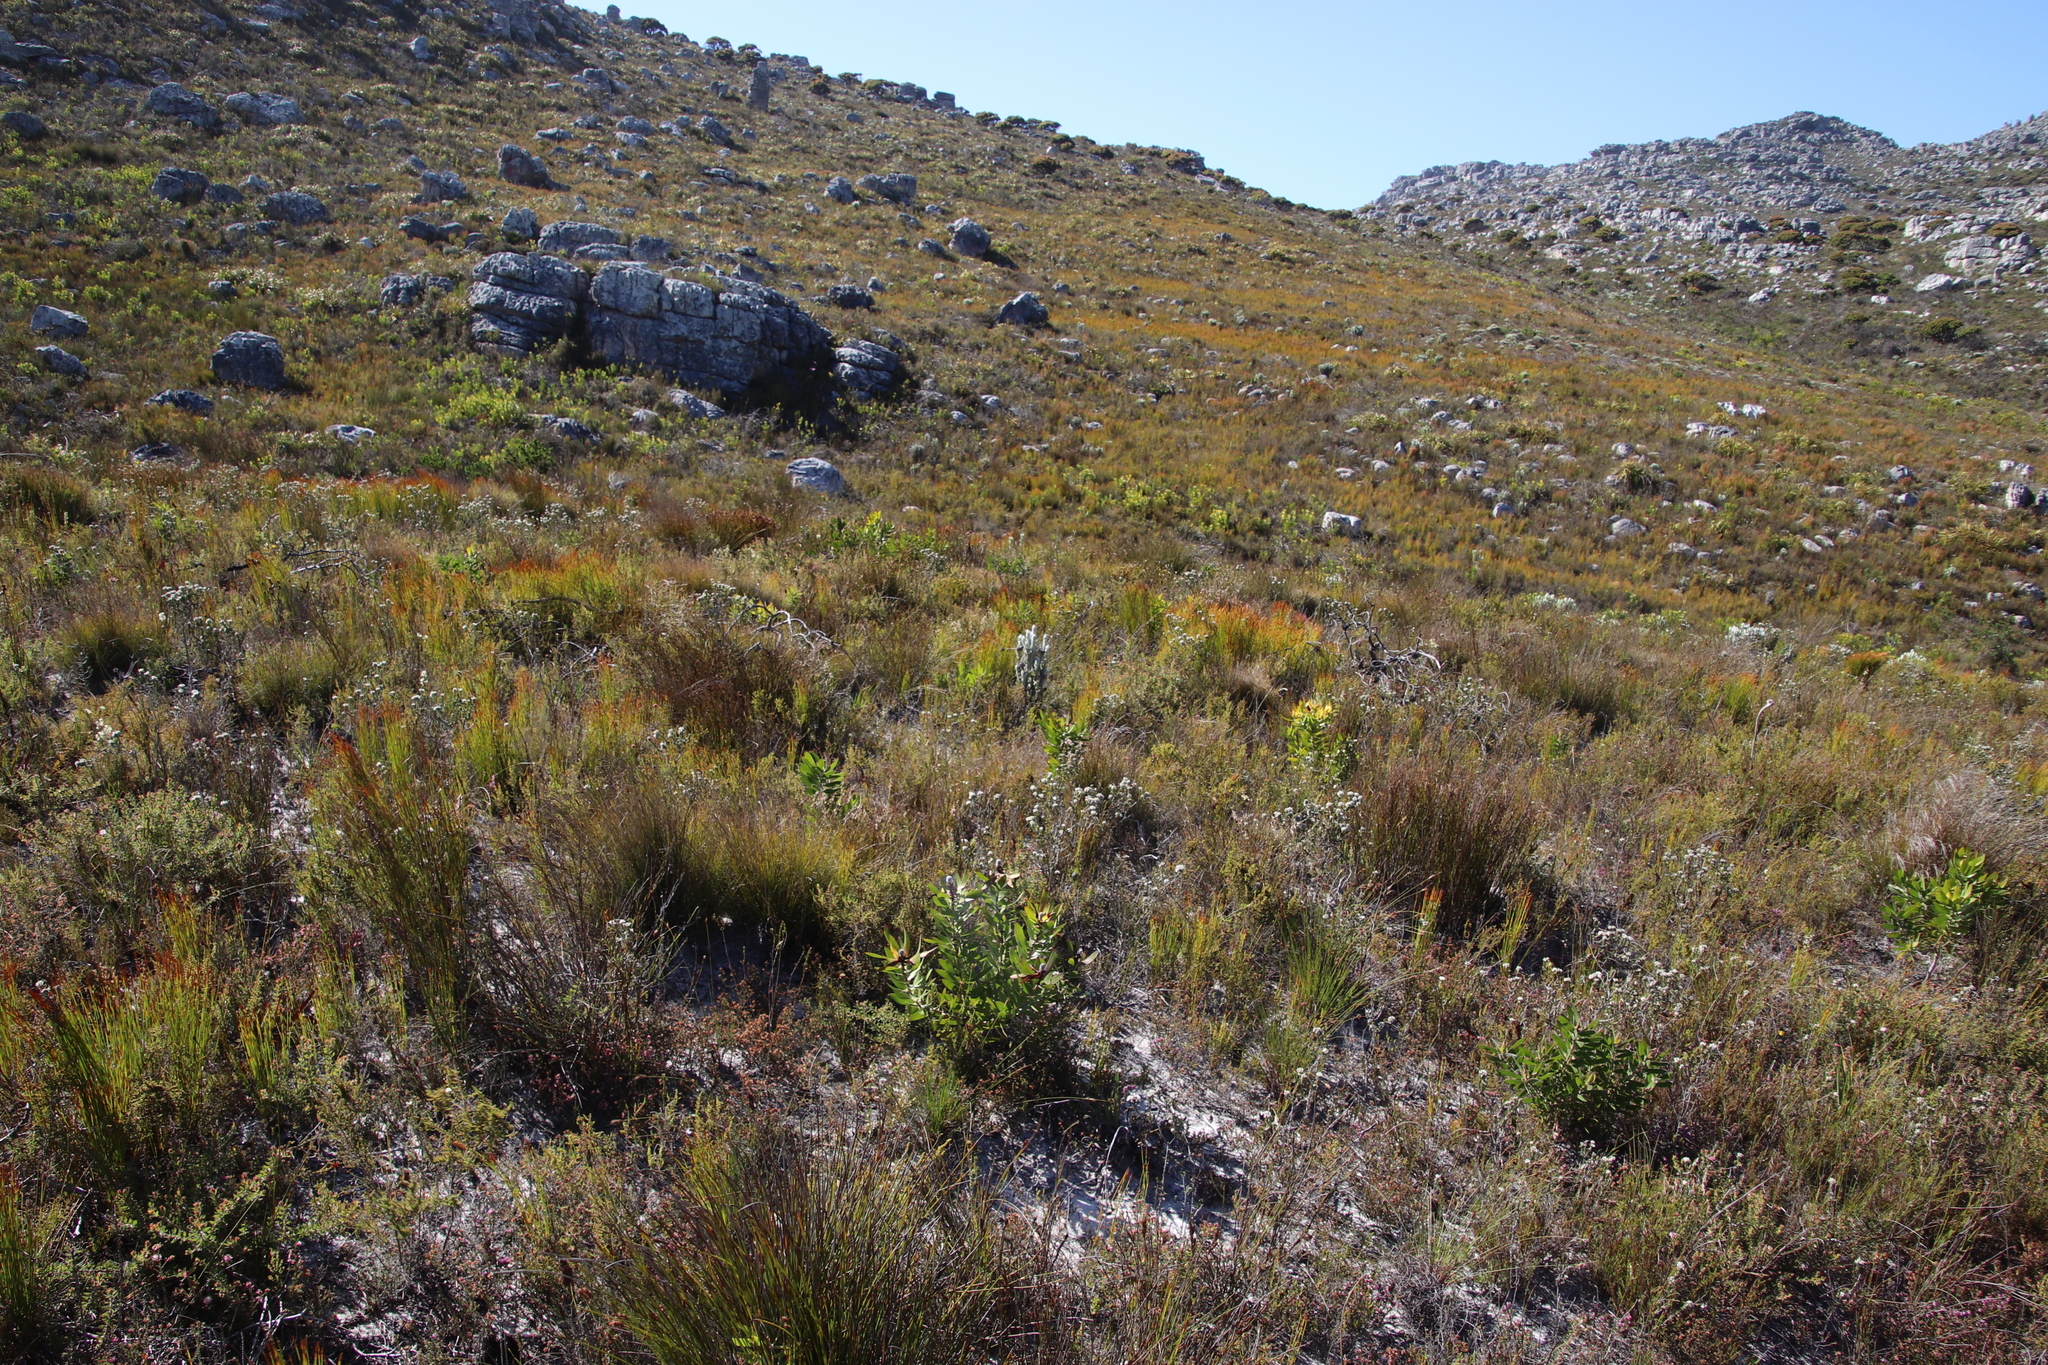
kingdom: Plantae
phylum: Tracheophyta
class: Magnoliopsida
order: Proteales
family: Proteaceae
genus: Leucadendron
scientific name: Leucadendron laureolum
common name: Golden sunshinebush
